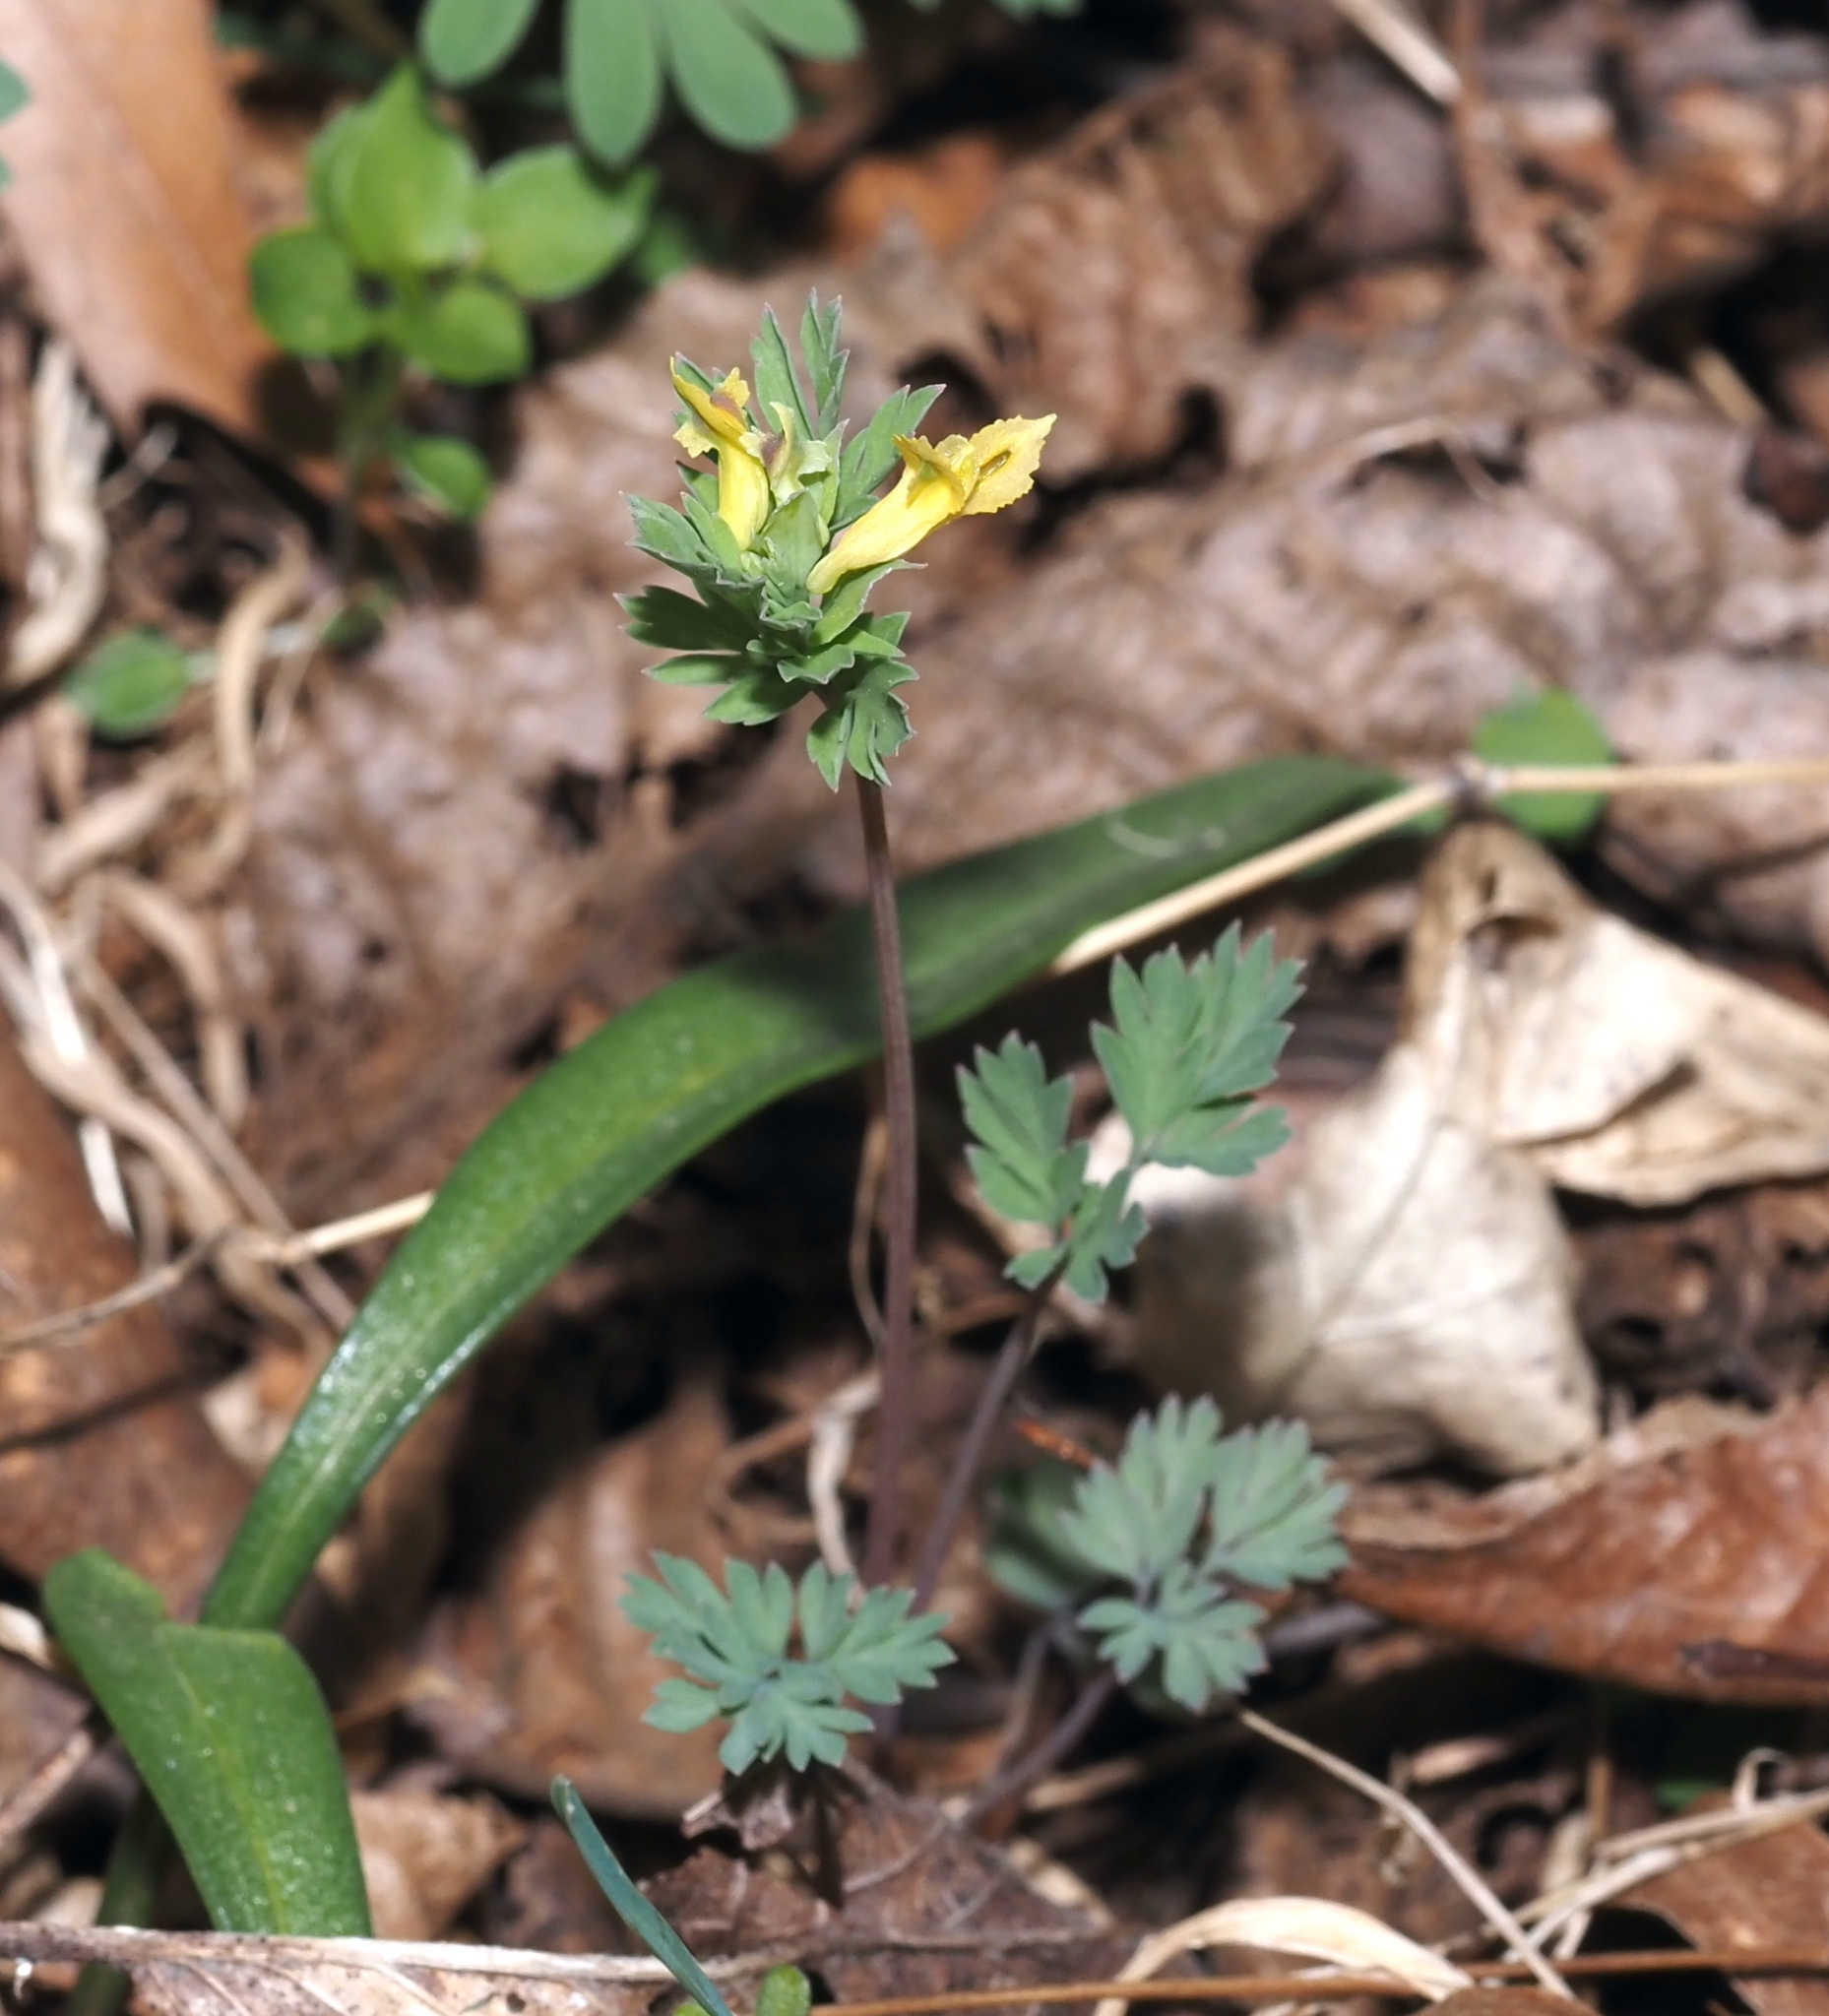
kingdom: Plantae
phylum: Tracheophyta
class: Magnoliopsida
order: Ranunculales
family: Papaveraceae
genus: Corydalis
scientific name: Corydalis flavula
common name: Yellow corydalis
